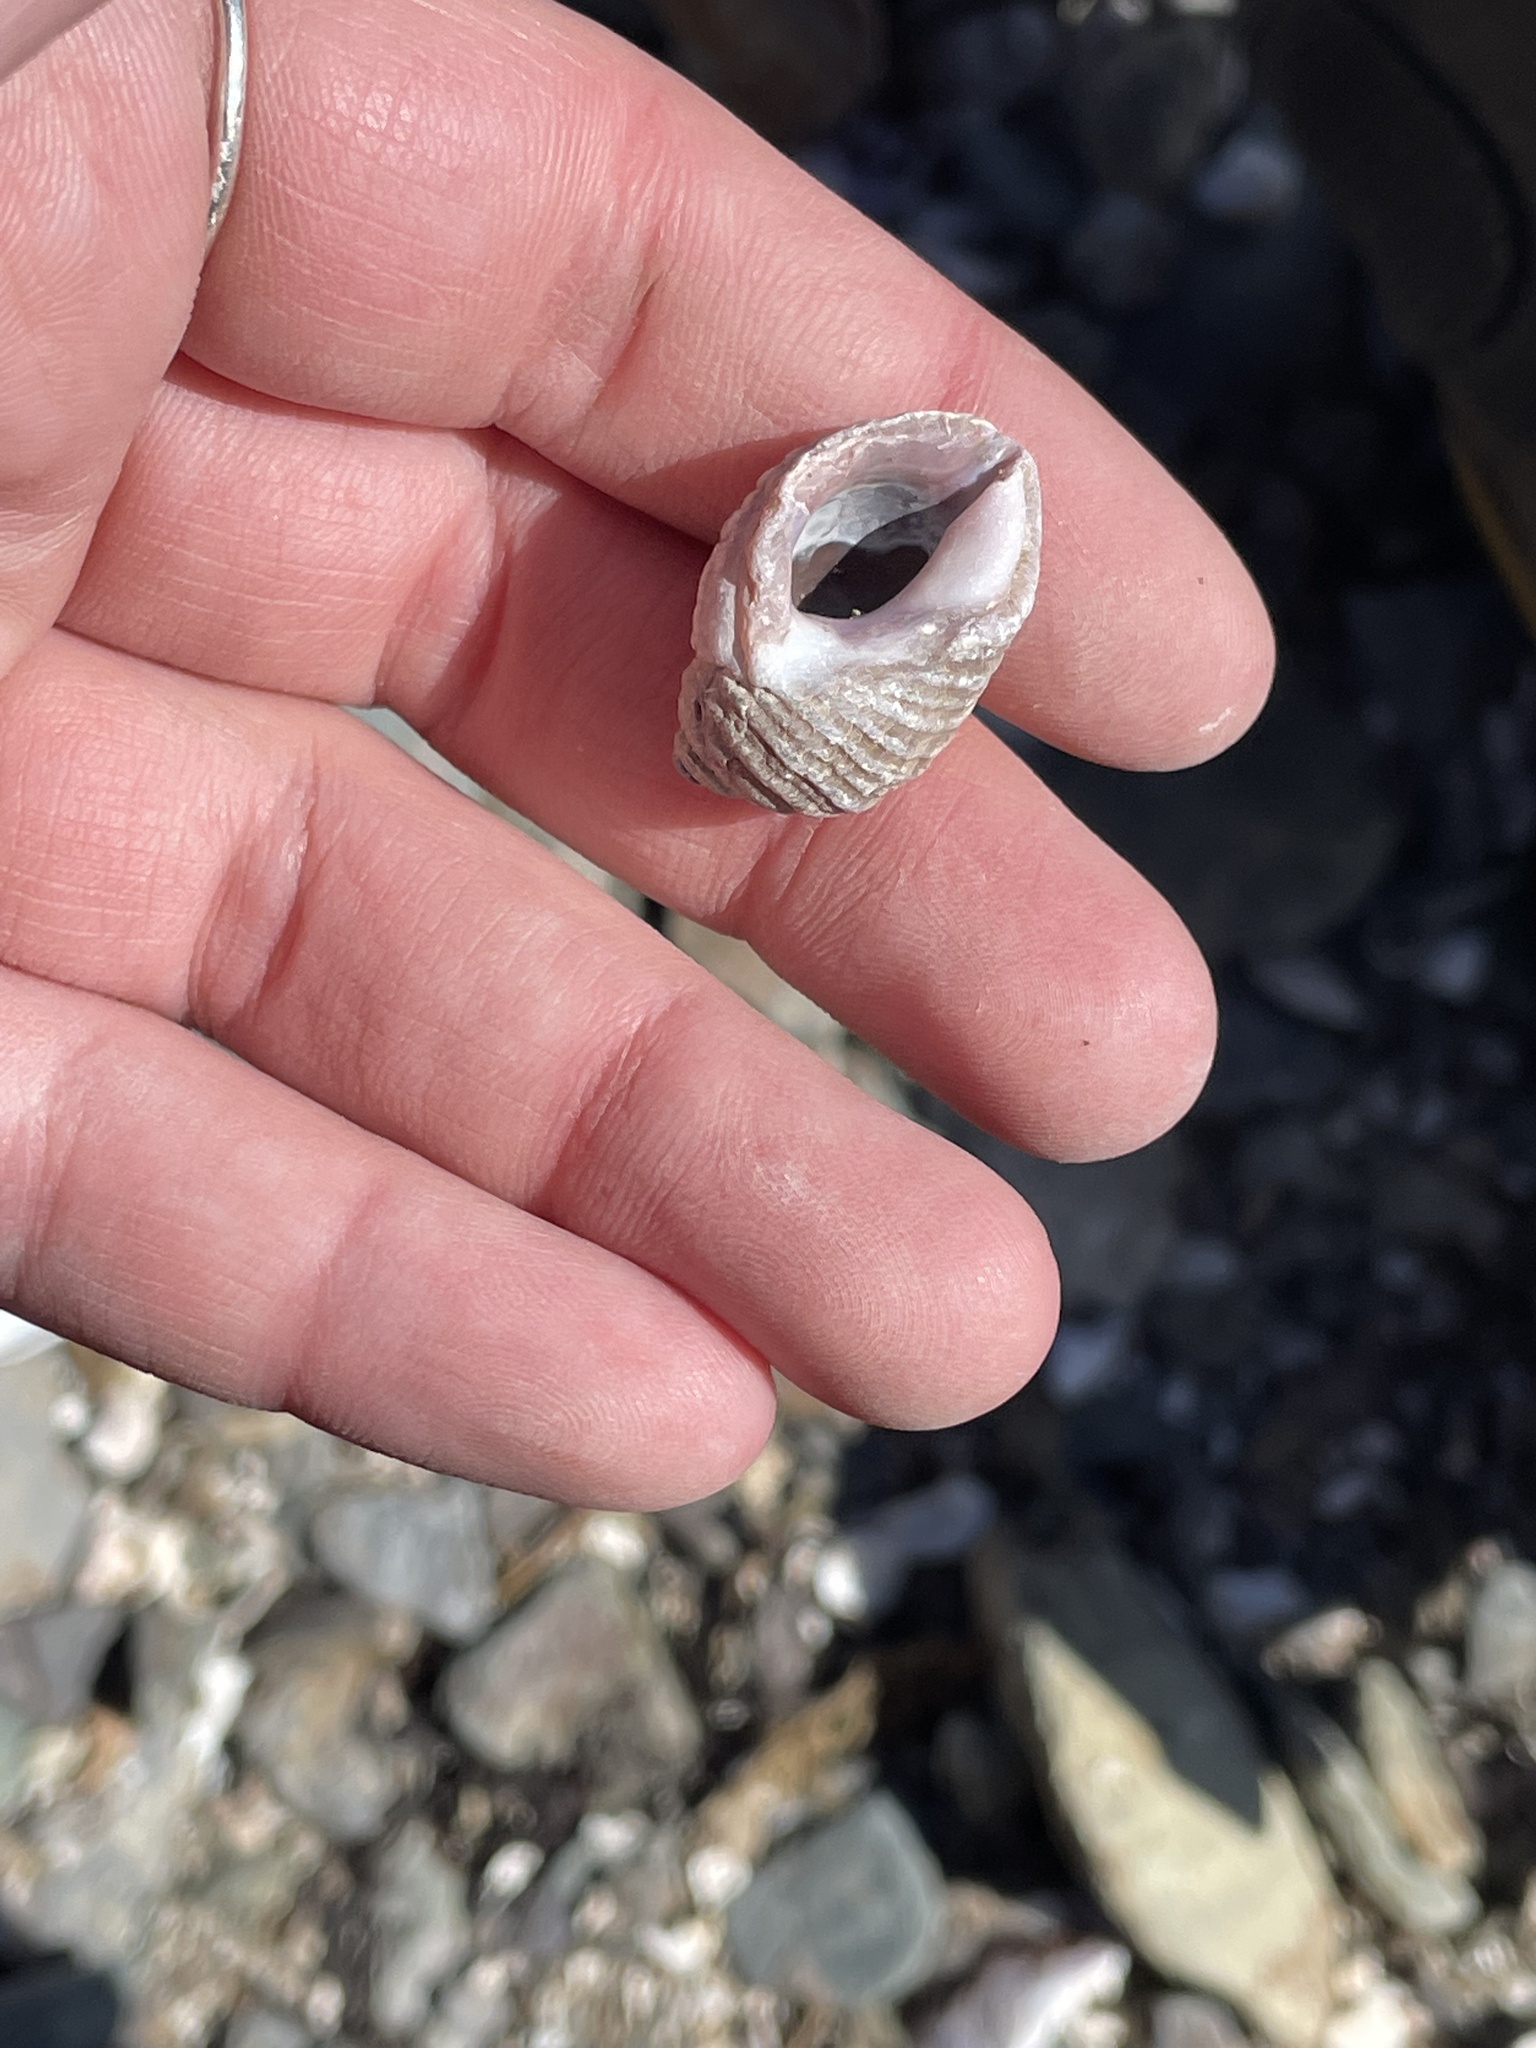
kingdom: Animalia
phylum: Mollusca
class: Gastropoda
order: Neogastropoda
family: Muricidae
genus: Nucella
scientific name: Nucella lapillus
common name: Dog whelk
